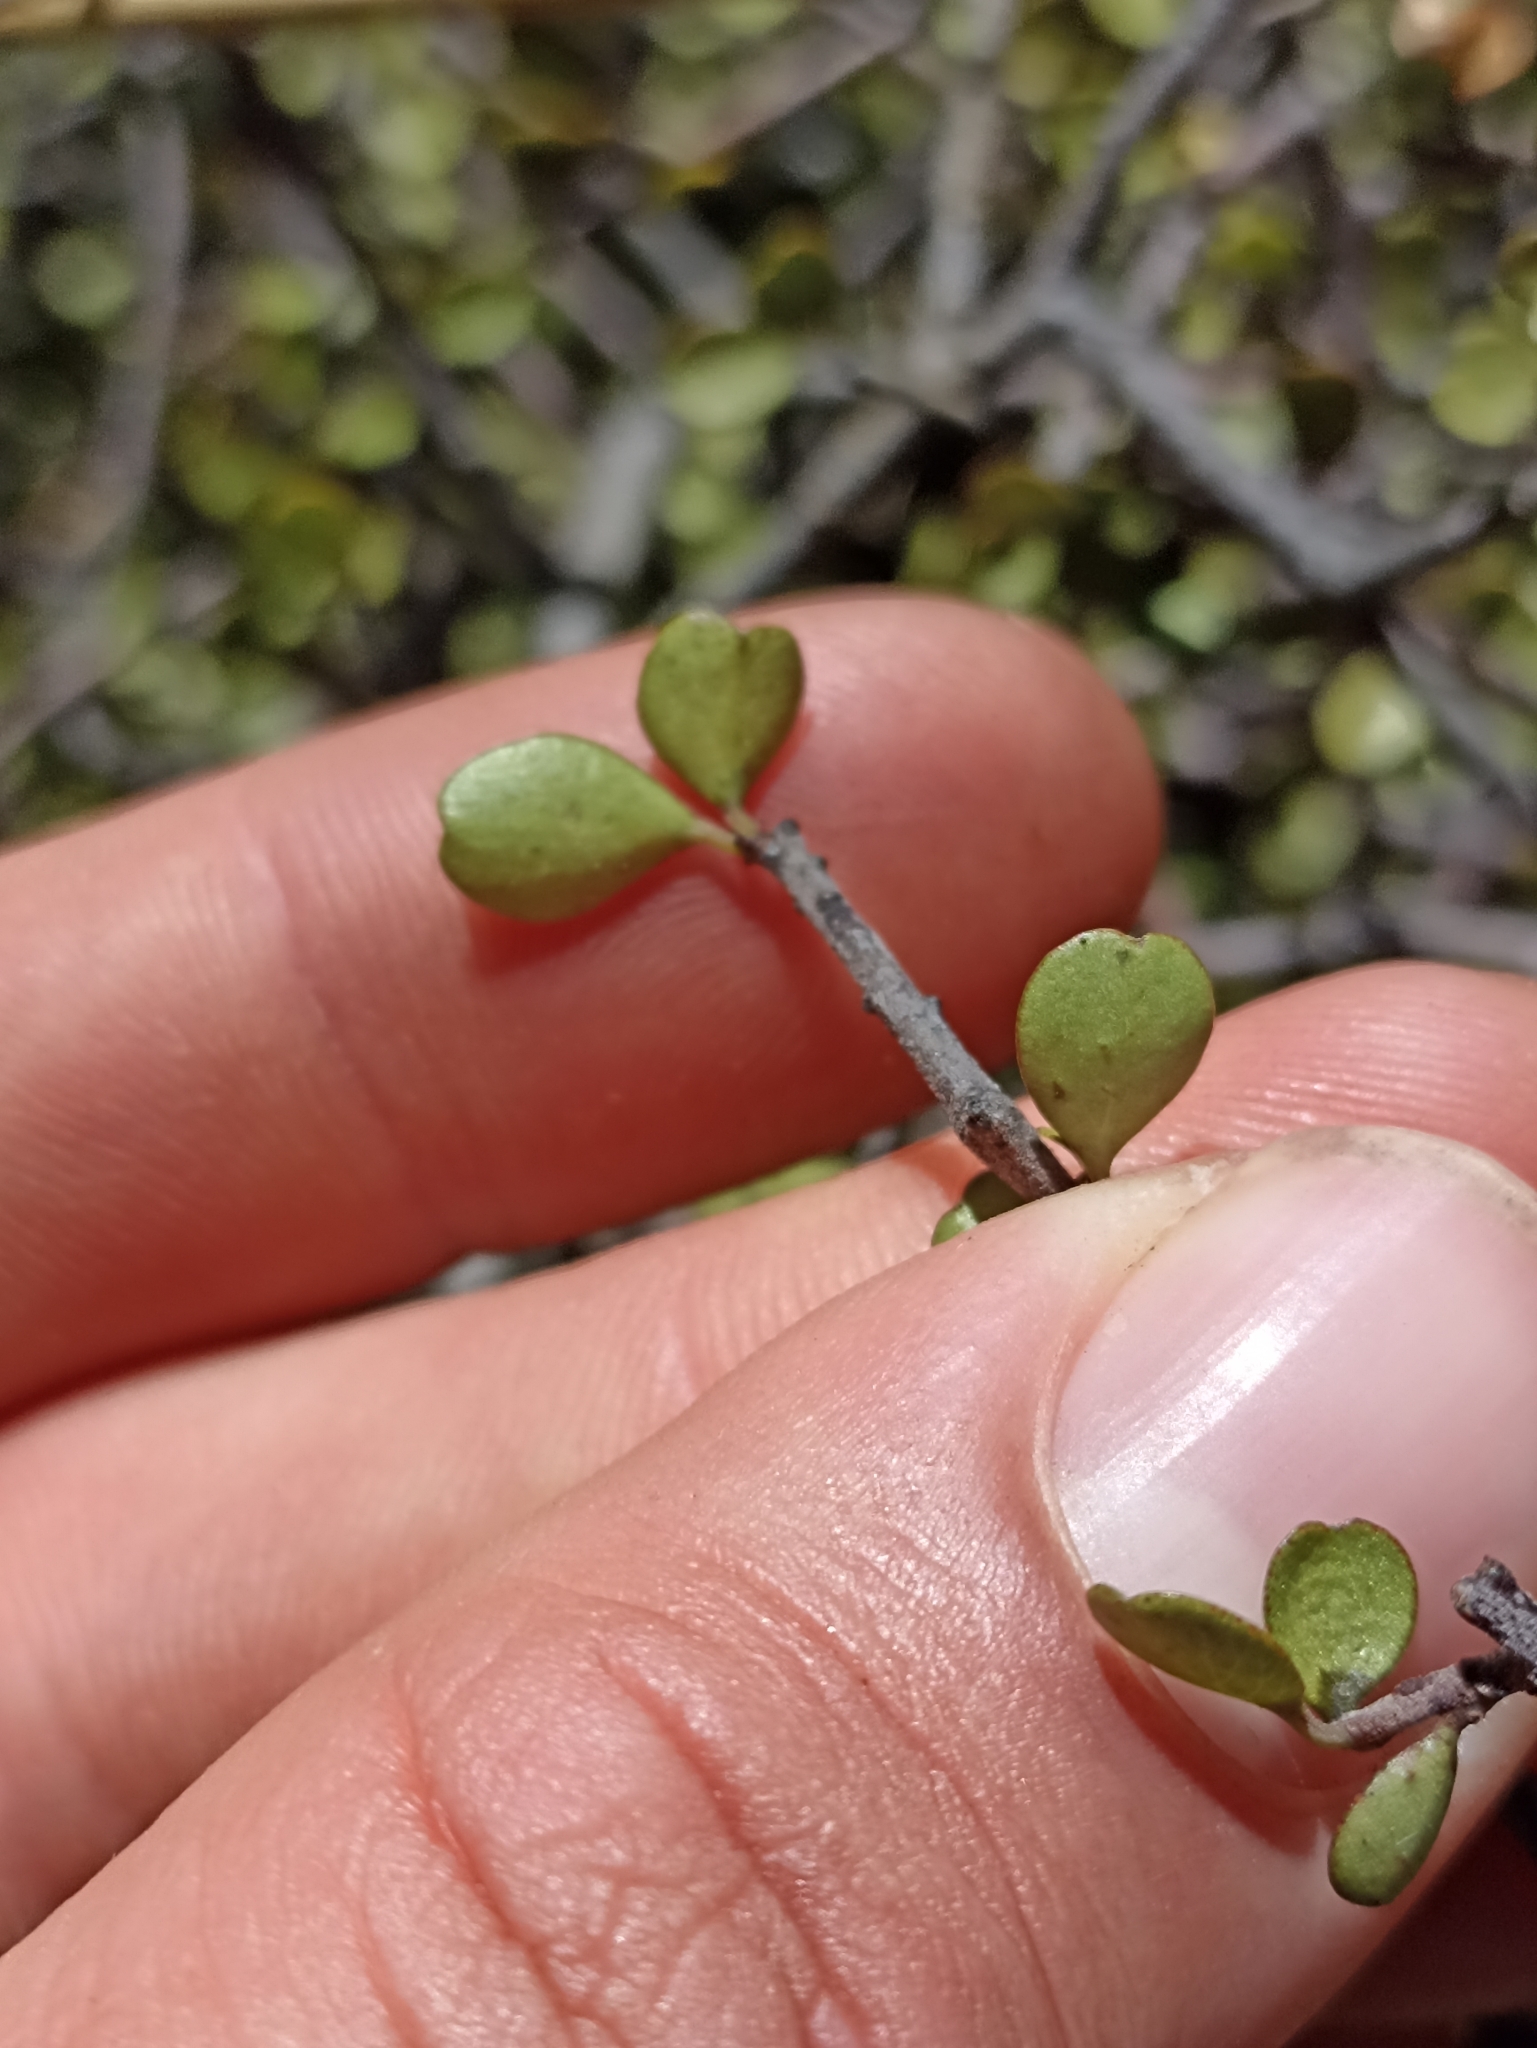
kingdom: Plantae
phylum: Tracheophyta
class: Magnoliopsida
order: Ericales
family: Primulaceae
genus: Myrsine
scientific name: Myrsine divaricata
